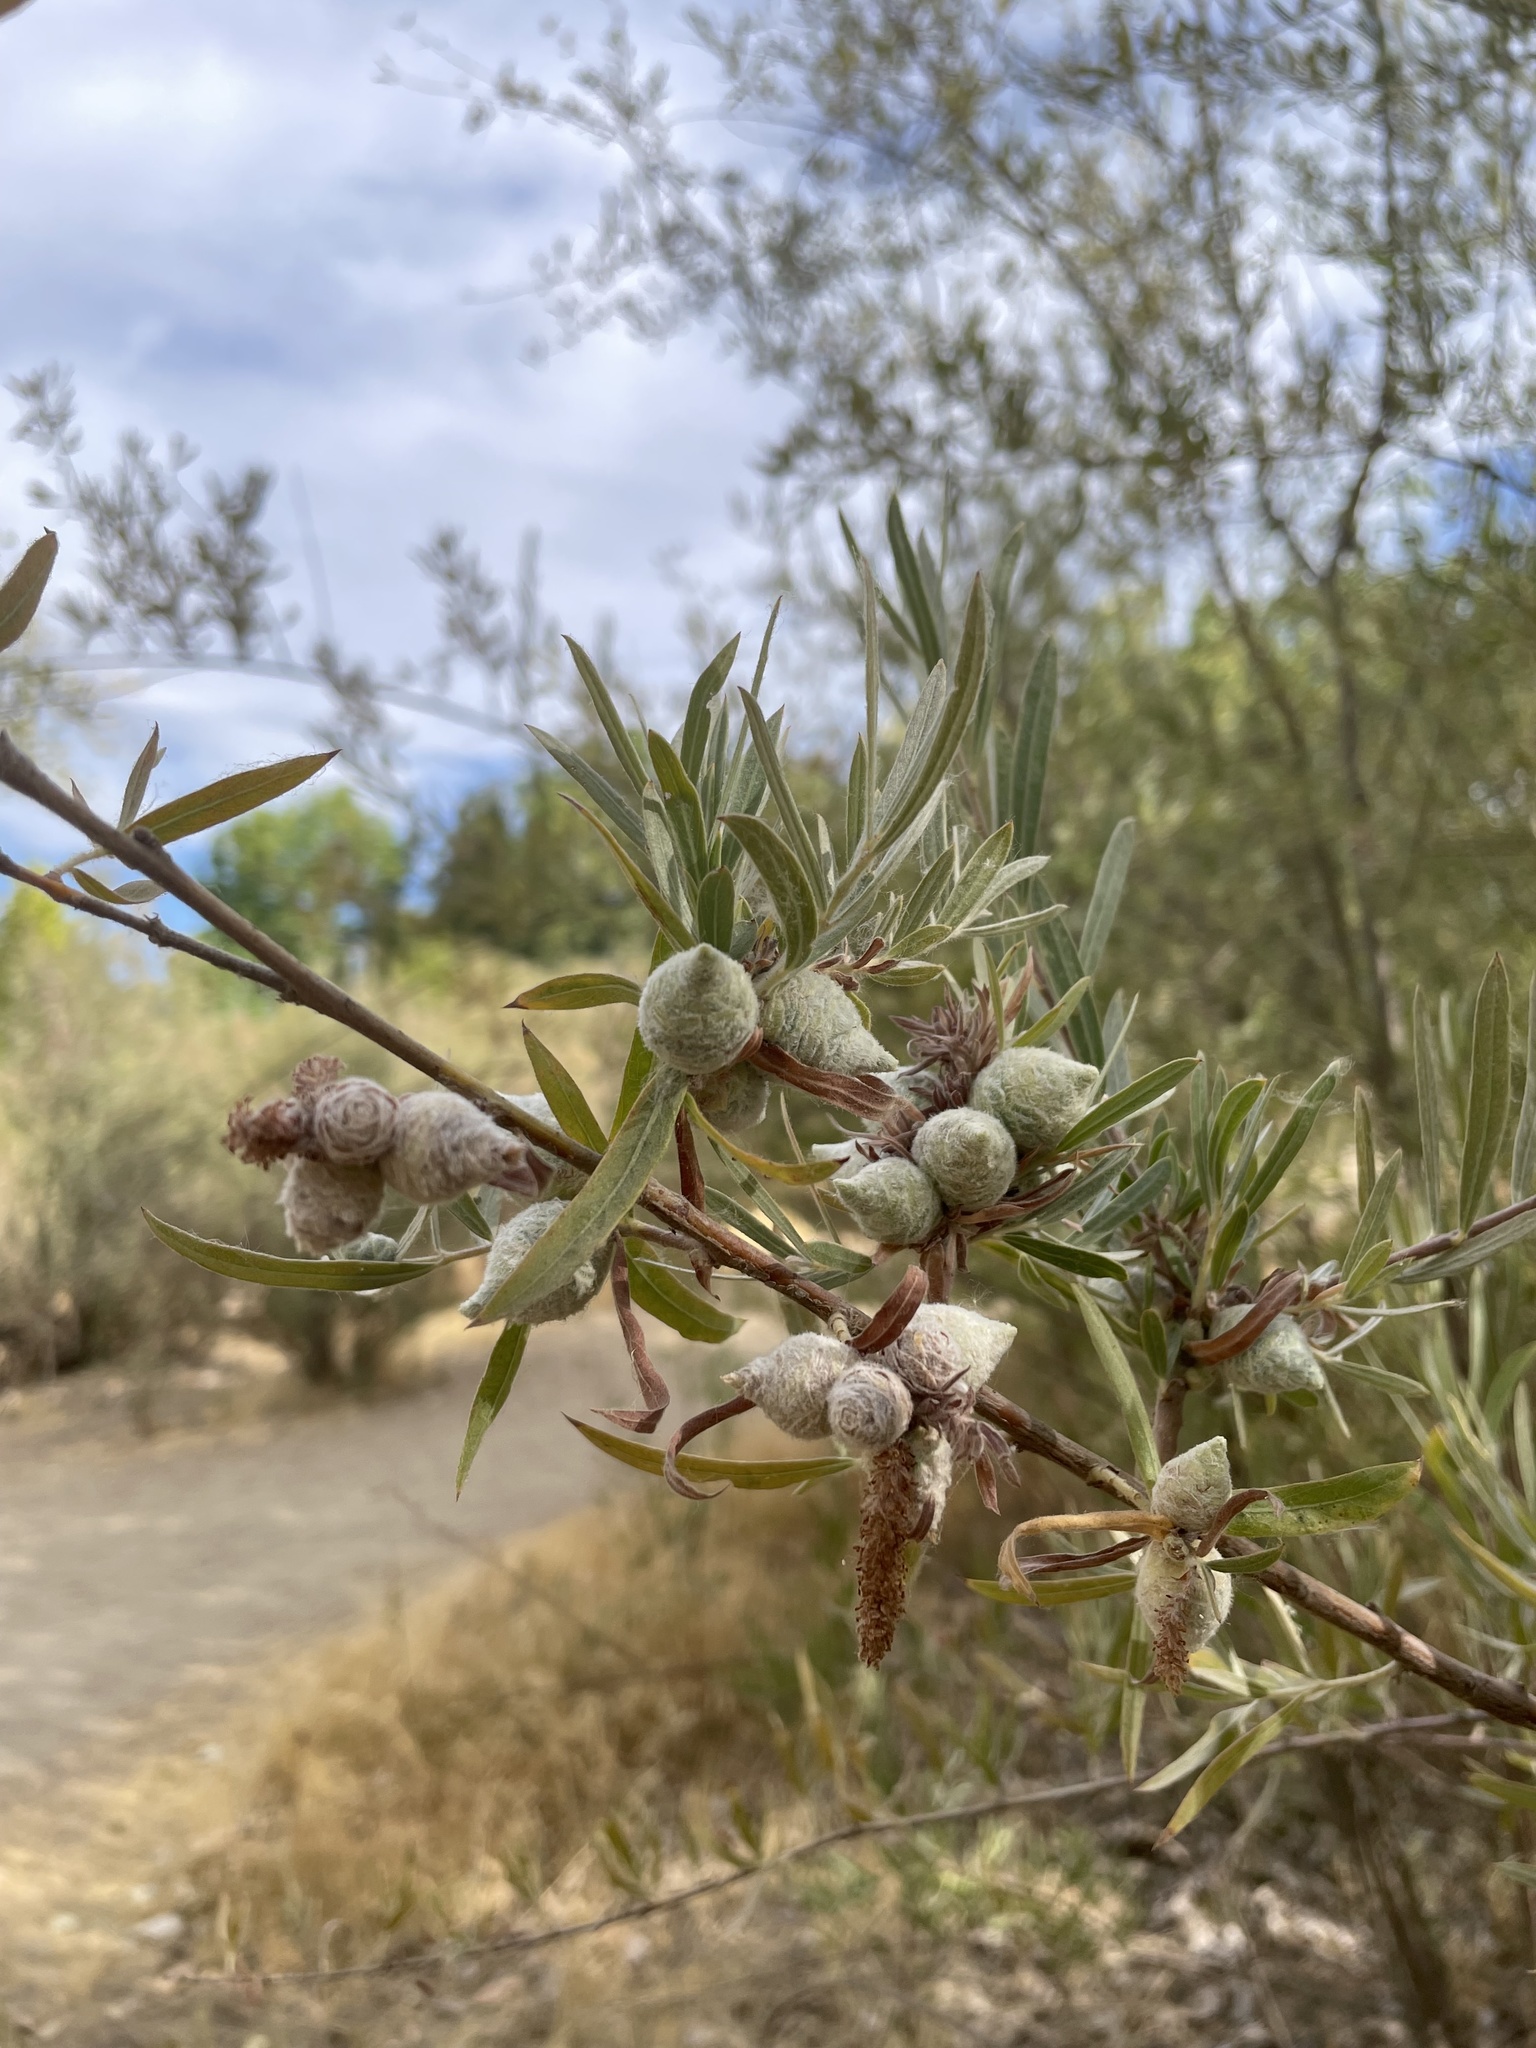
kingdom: Animalia
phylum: Arthropoda
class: Insecta
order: Diptera
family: Cecidomyiidae
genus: Rabdophaga
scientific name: Rabdophaga strobiloides
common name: Willow pinecone gall midge
